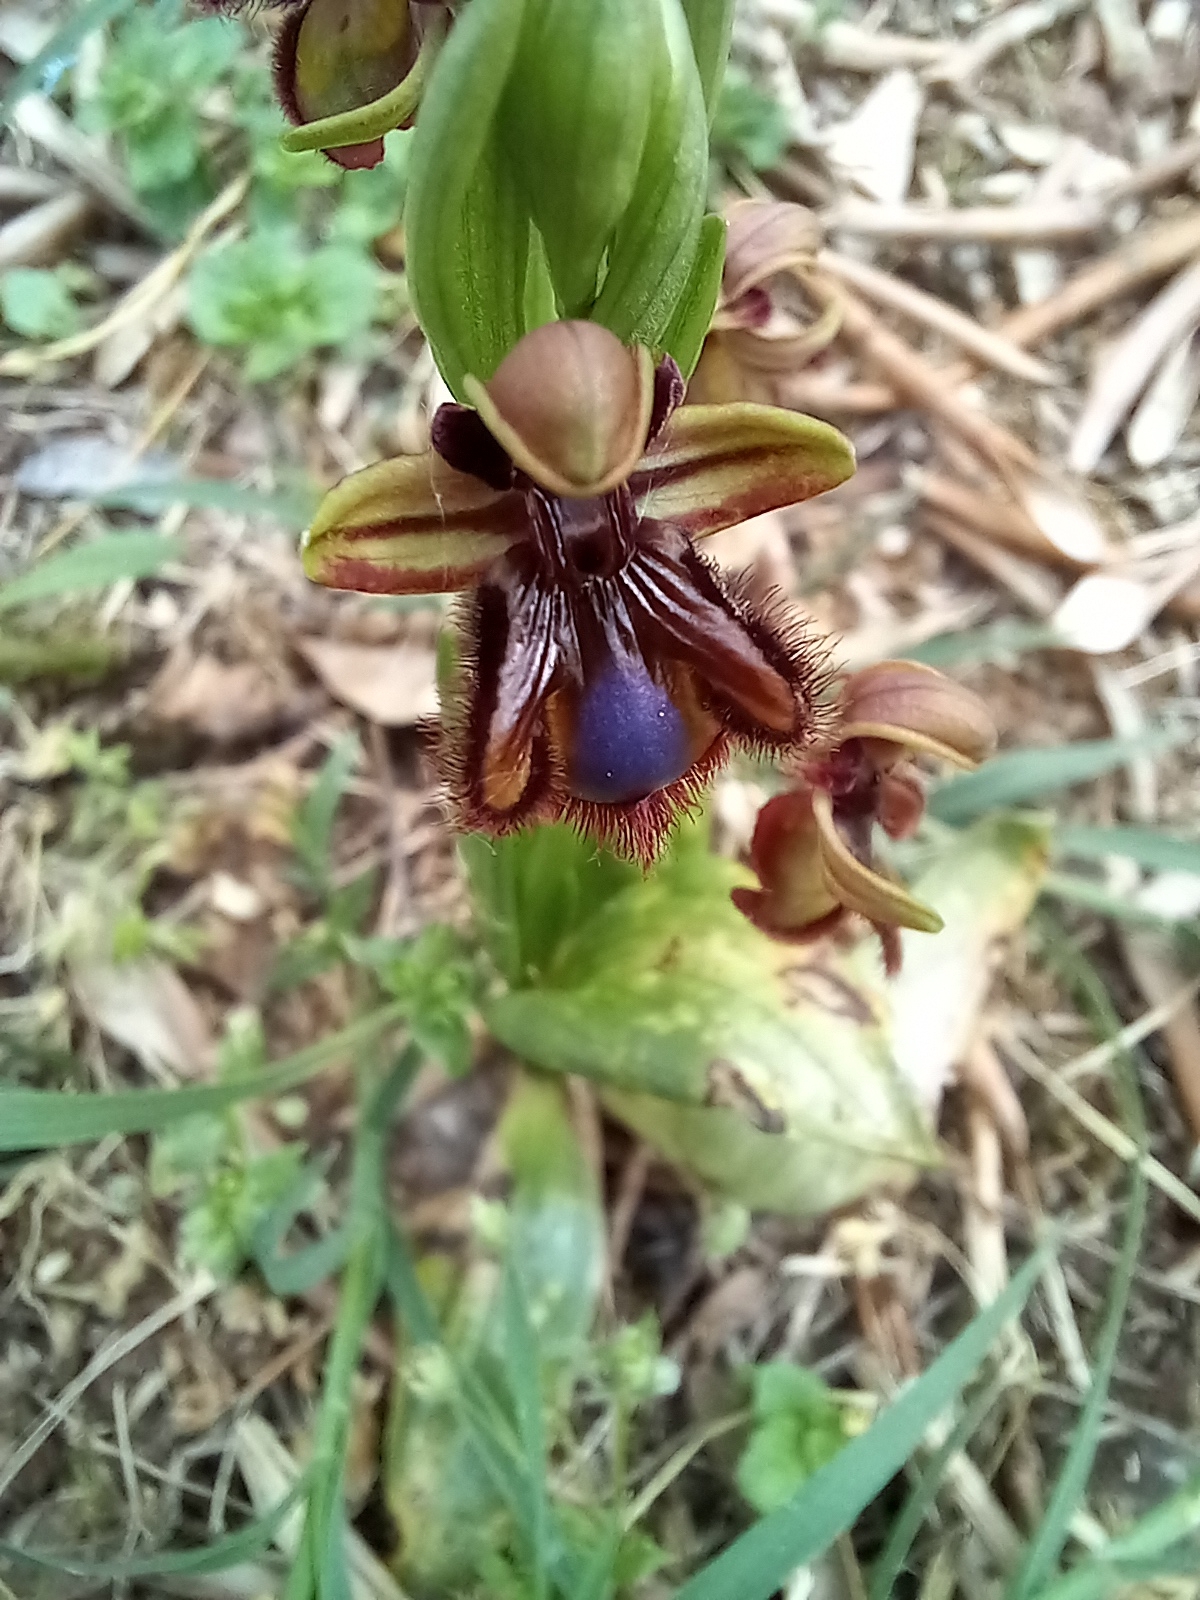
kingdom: Plantae
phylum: Tracheophyta
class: Liliopsida
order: Asparagales
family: Orchidaceae
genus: Ophrys
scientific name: Ophrys speculum
